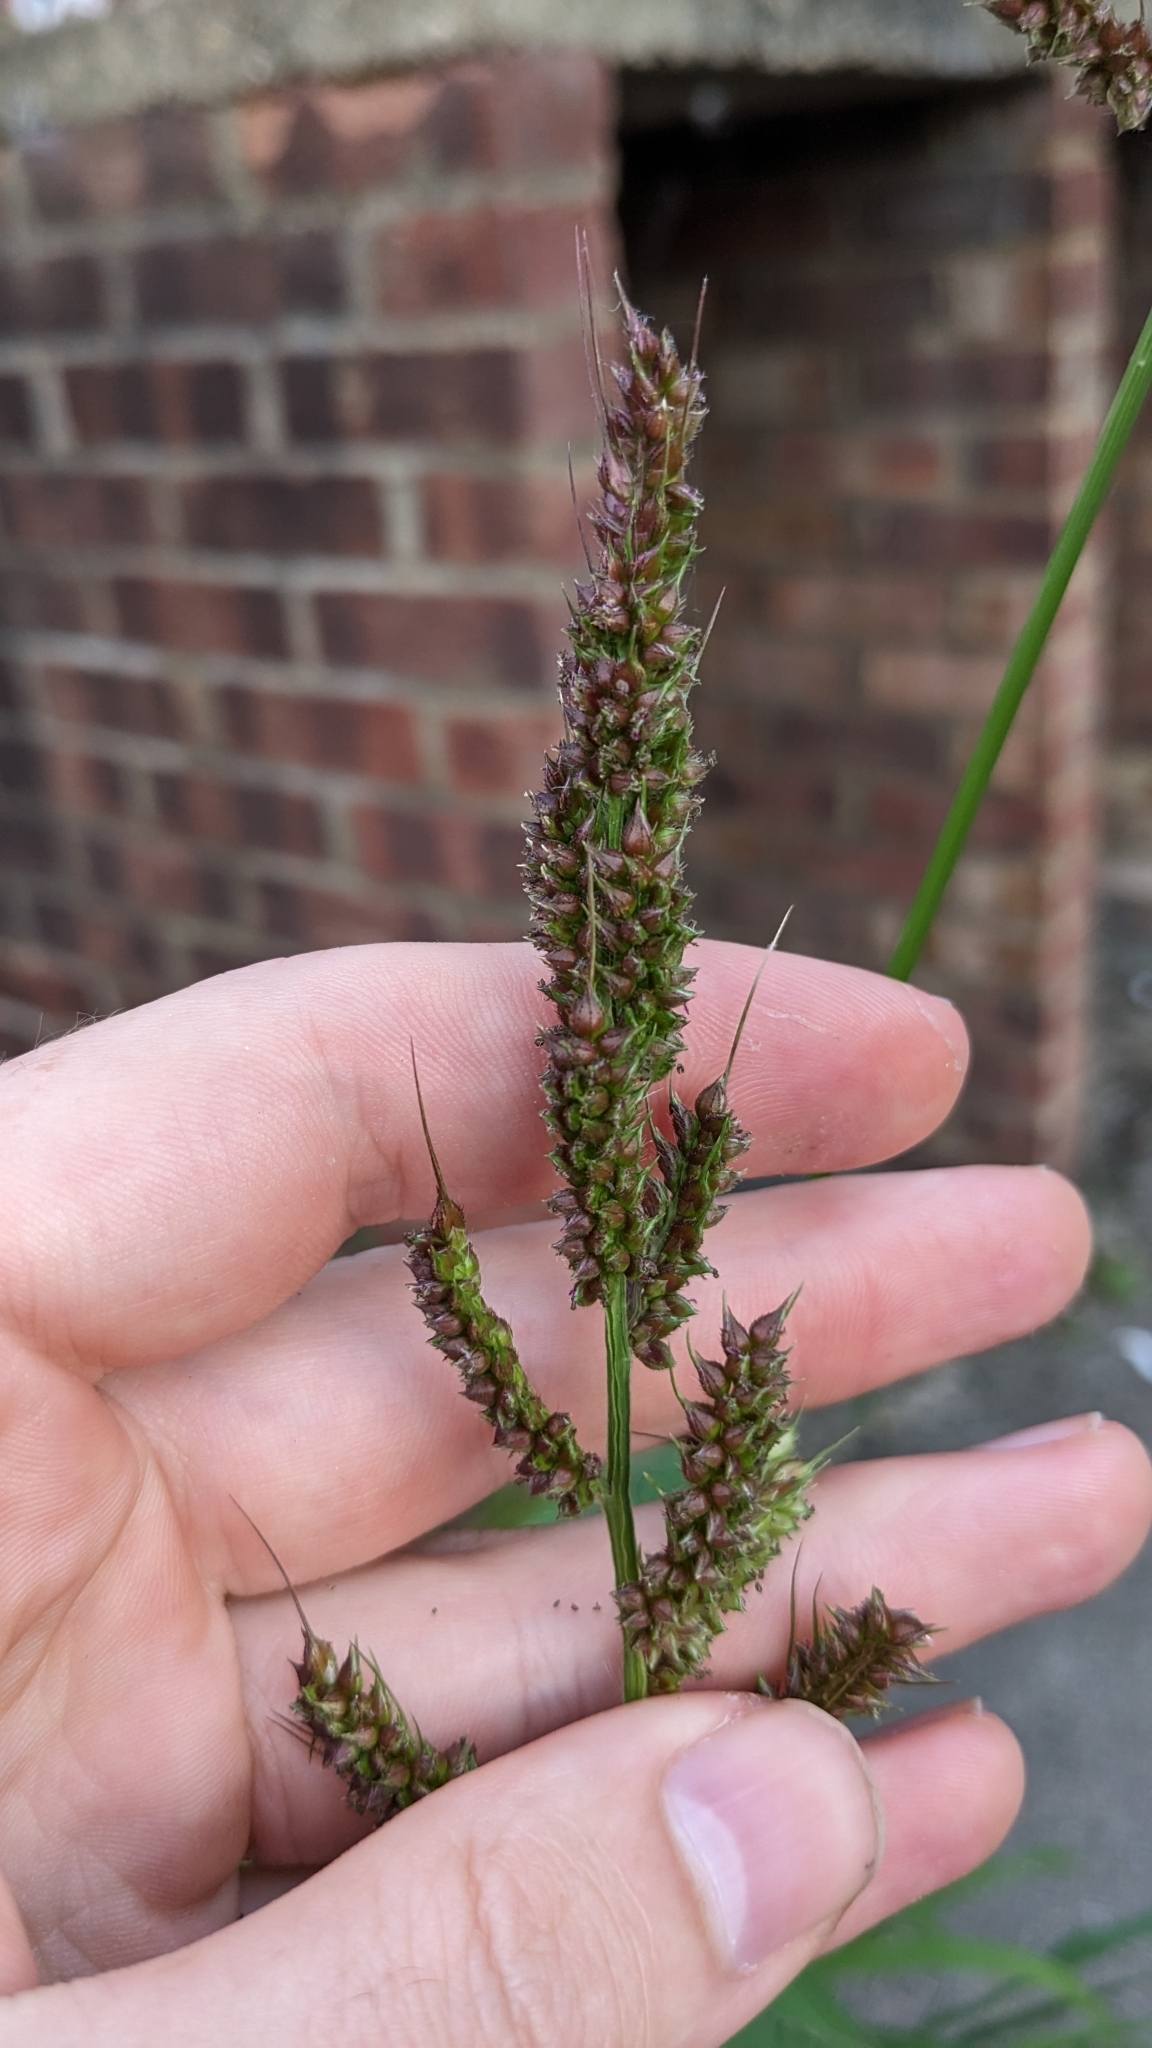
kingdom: Plantae
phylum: Tracheophyta
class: Liliopsida
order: Poales
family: Poaceae
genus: Echinochloa
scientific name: Echinochloa crus-galli
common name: Cockspur
